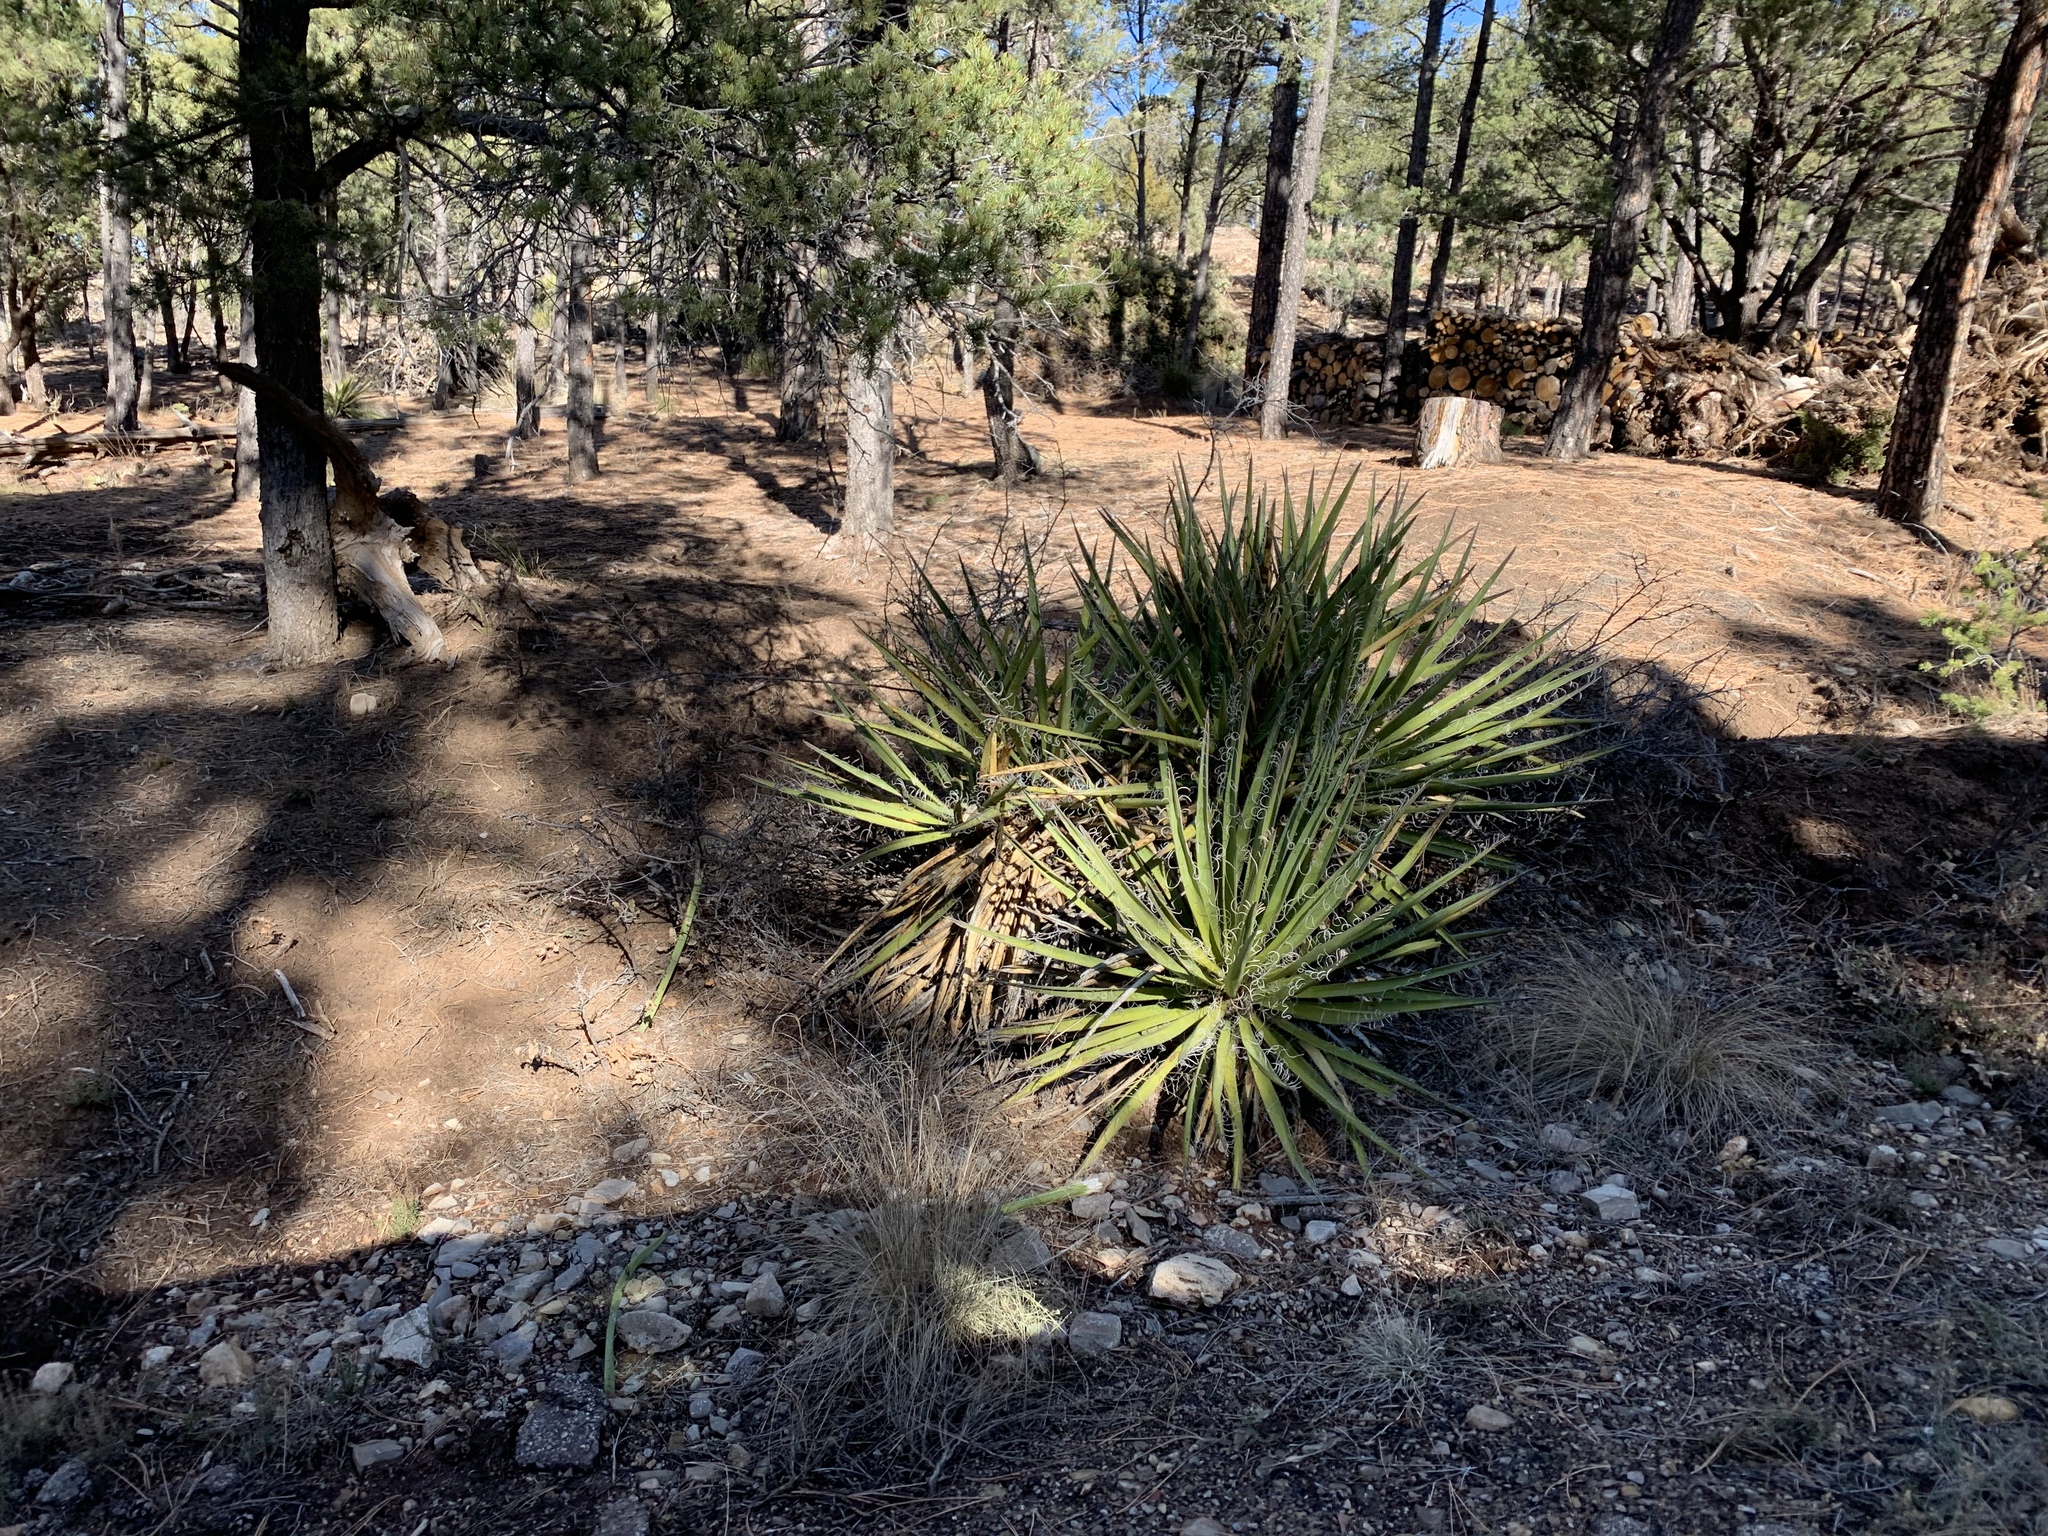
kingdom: Plantae
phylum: Tracheophyta
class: Liliopsida
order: Asparagales
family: Asparagaceae
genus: Yucca
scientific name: Yucca baccata
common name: Banana yucca
